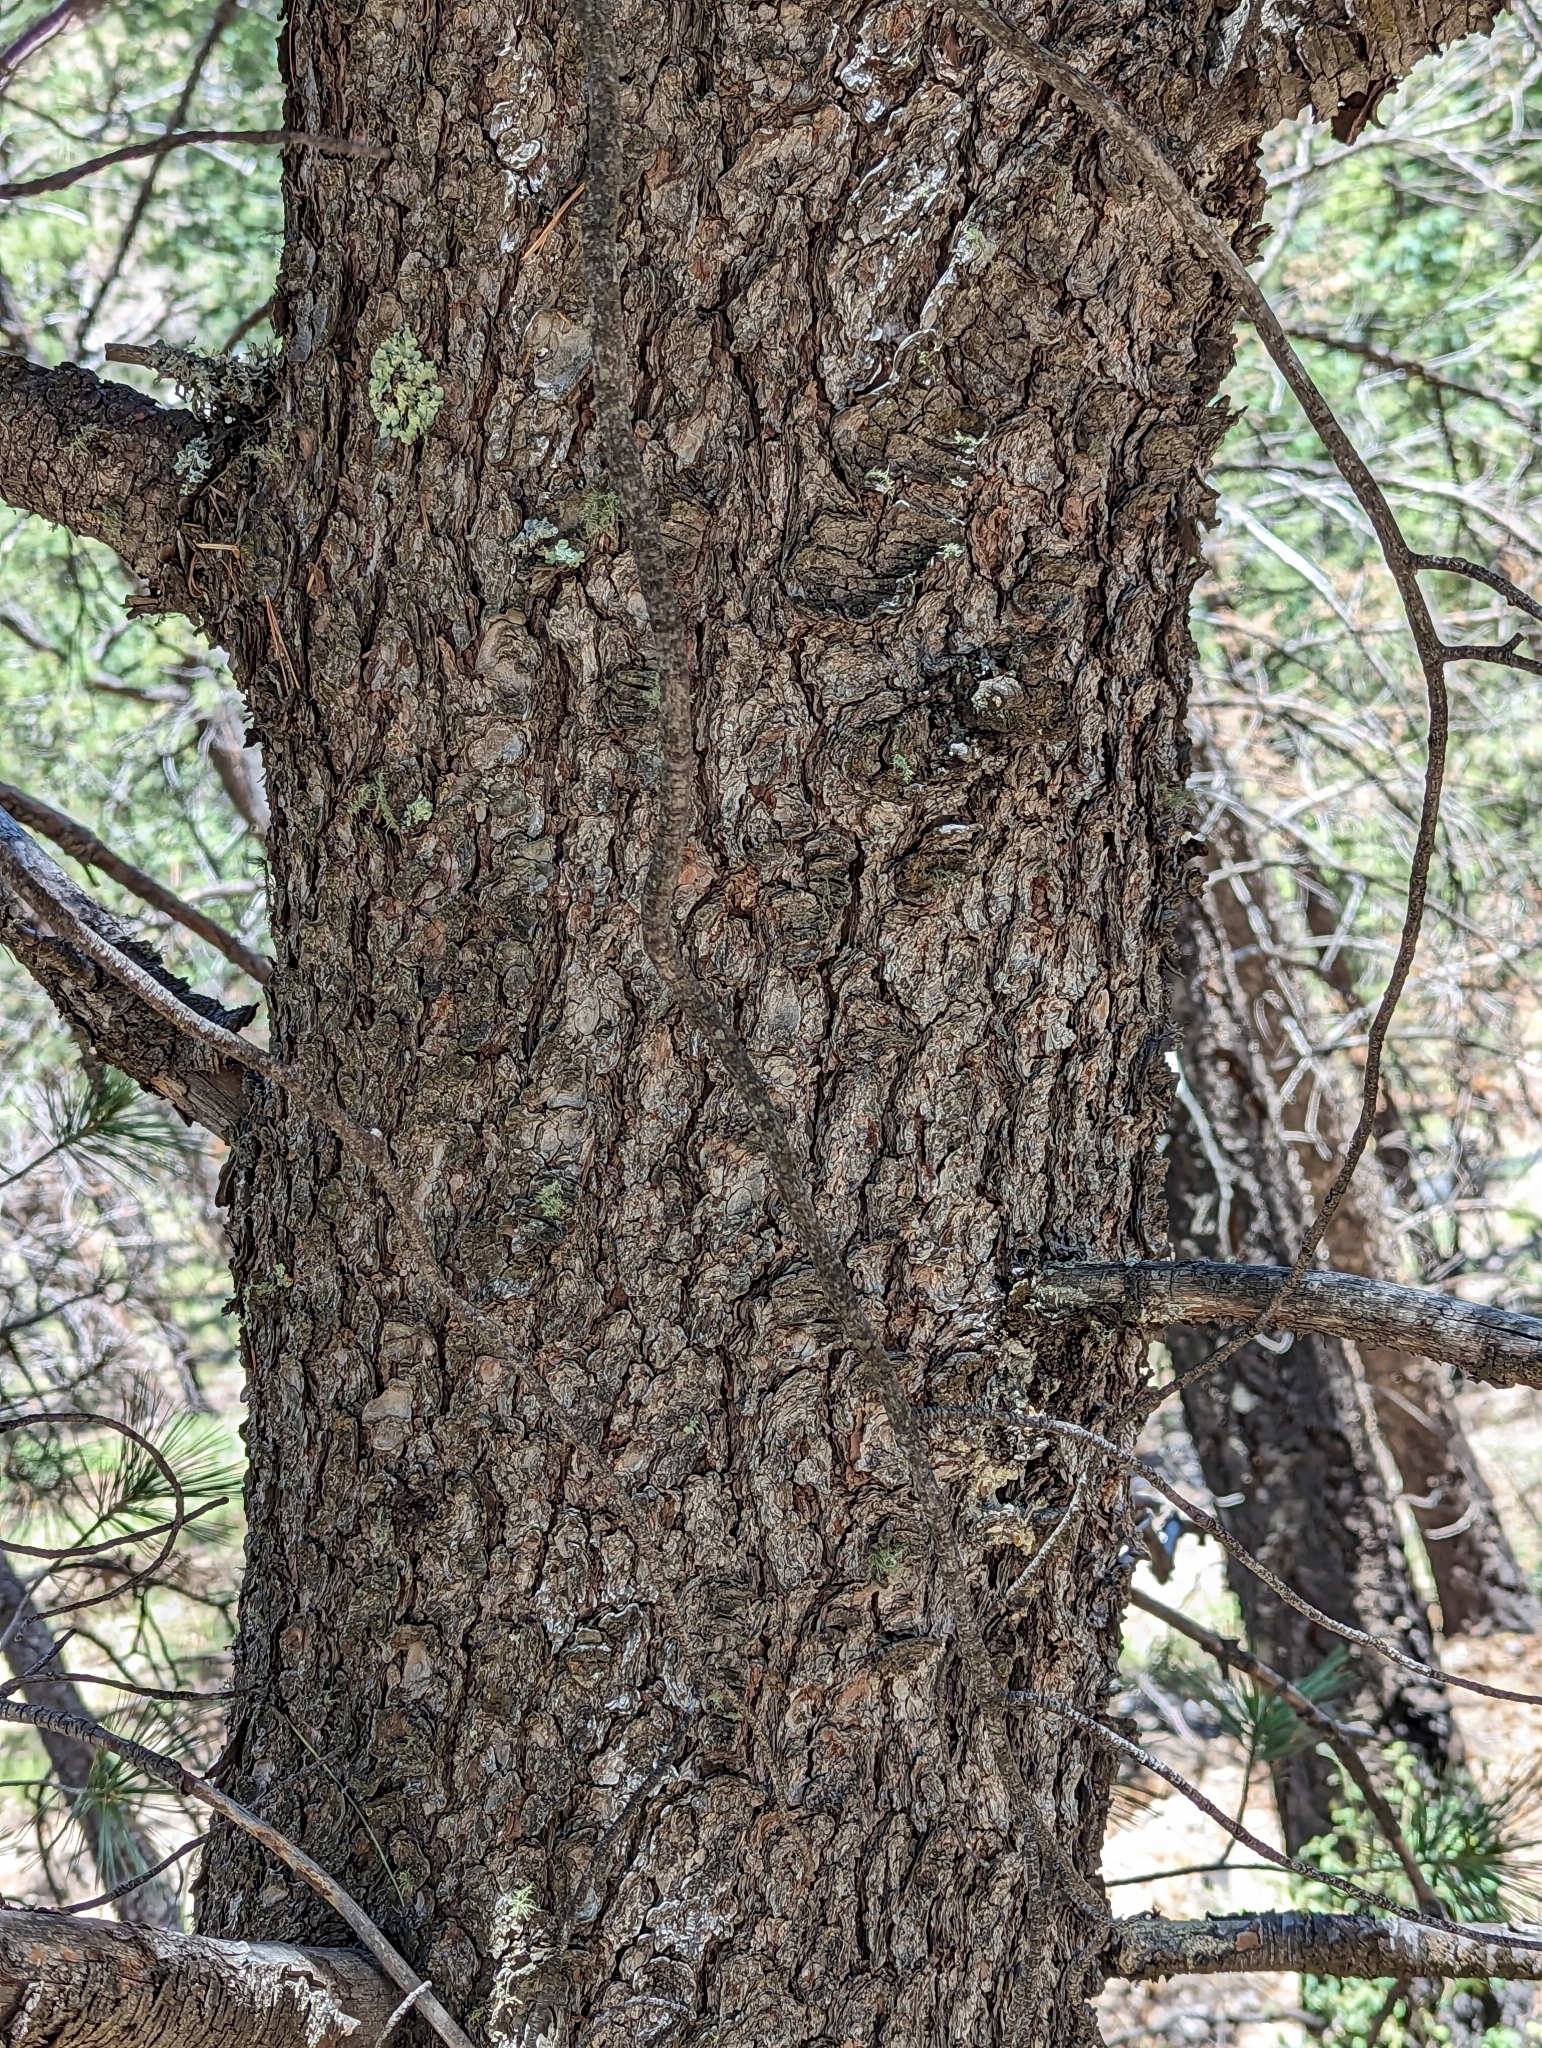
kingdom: Plantae
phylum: Tracheophyta
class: Pinopsida
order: Pinales
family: Pinaceae
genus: Pinus
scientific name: Pinus strobiformis
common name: Southwestern white pine
